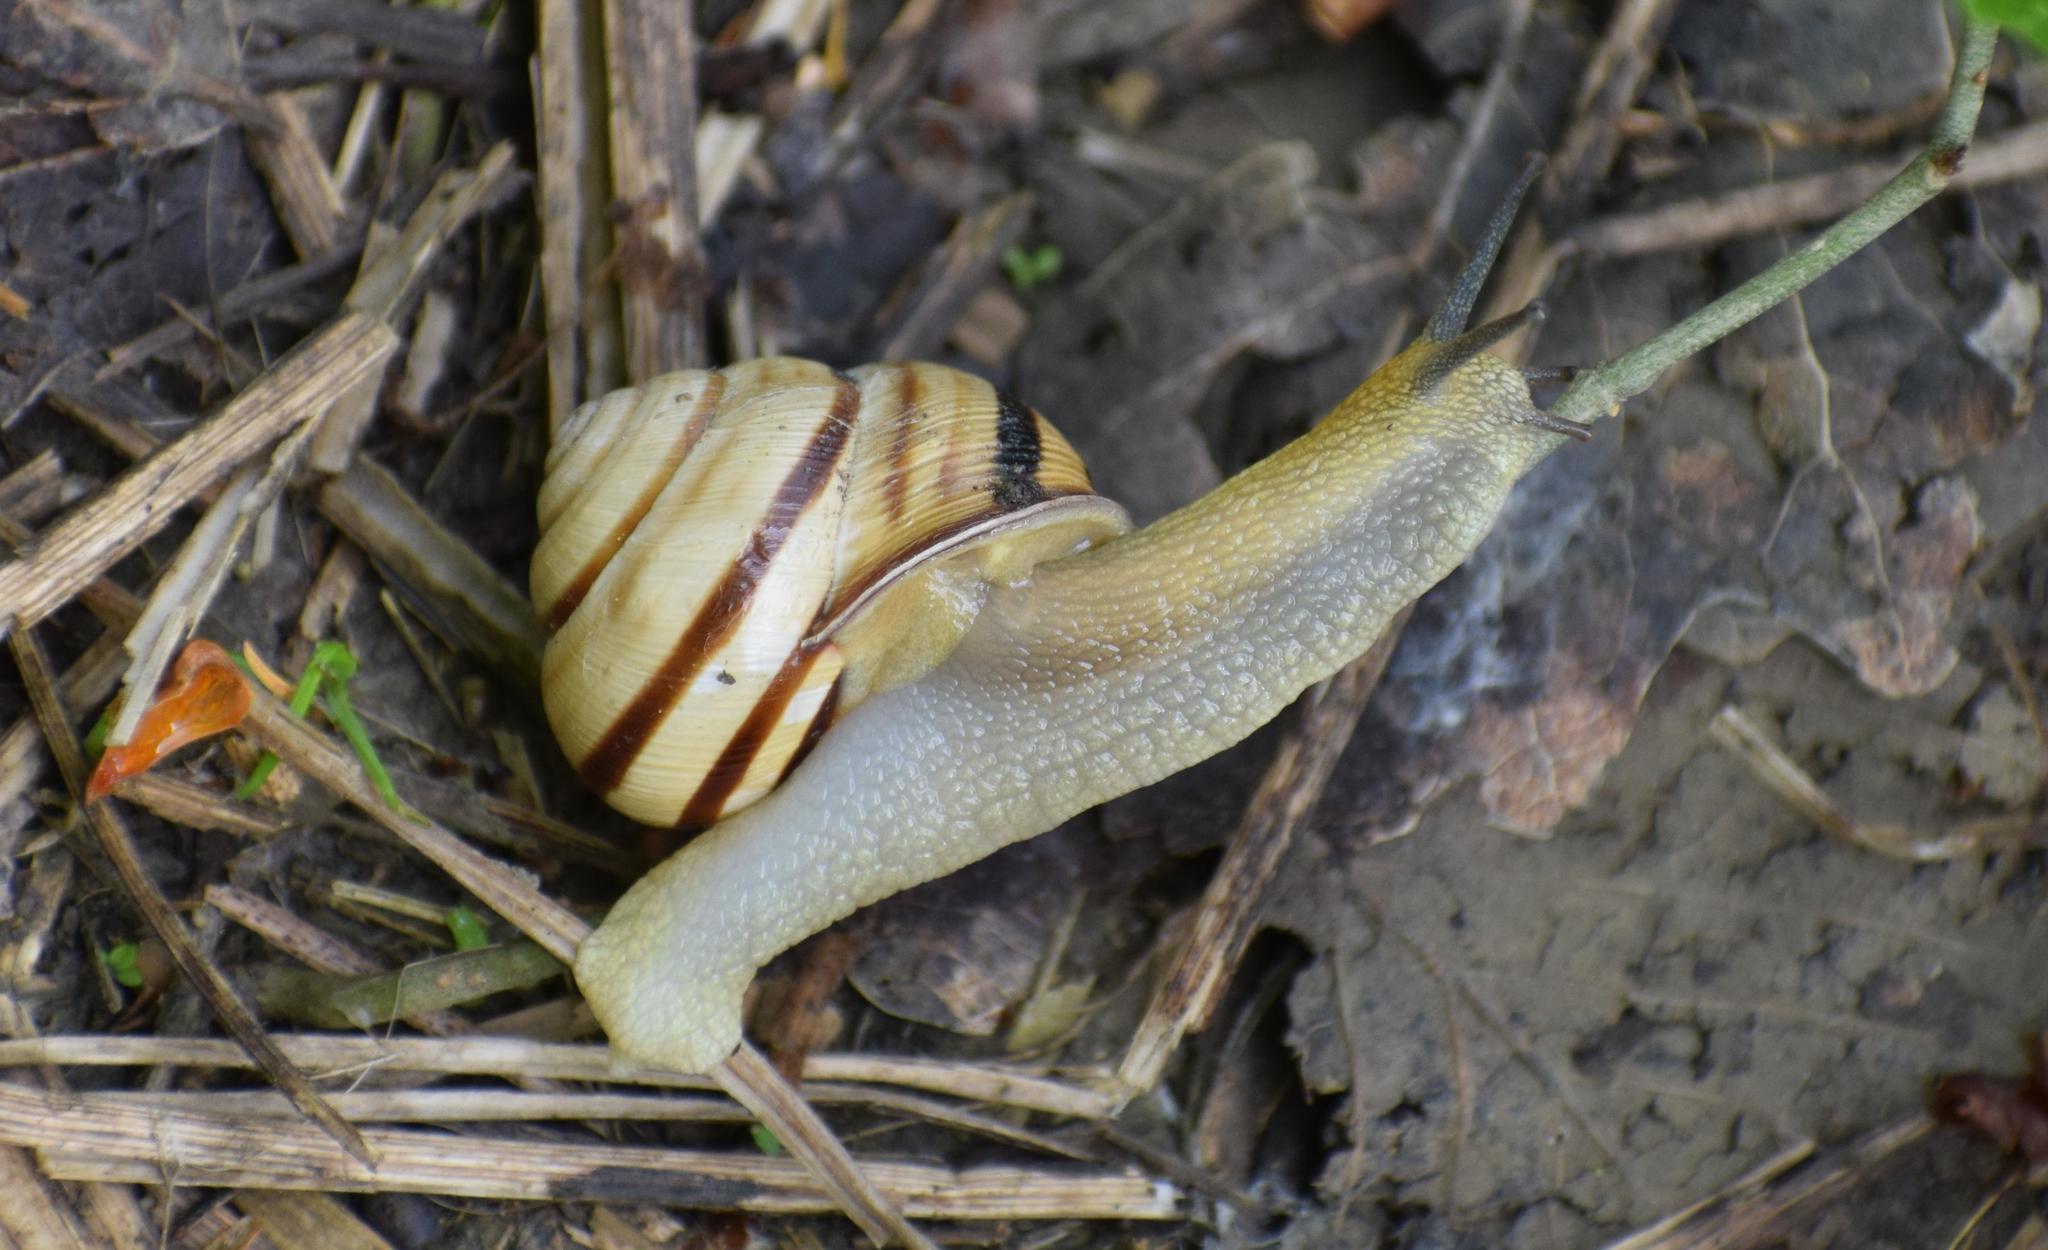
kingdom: Animalia
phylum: Mollusca
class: Gastropoda
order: Stylommatophora
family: Helicidae
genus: Caucasotachea
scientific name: Caucasotachea vindobonensis
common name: European helicid land snail
